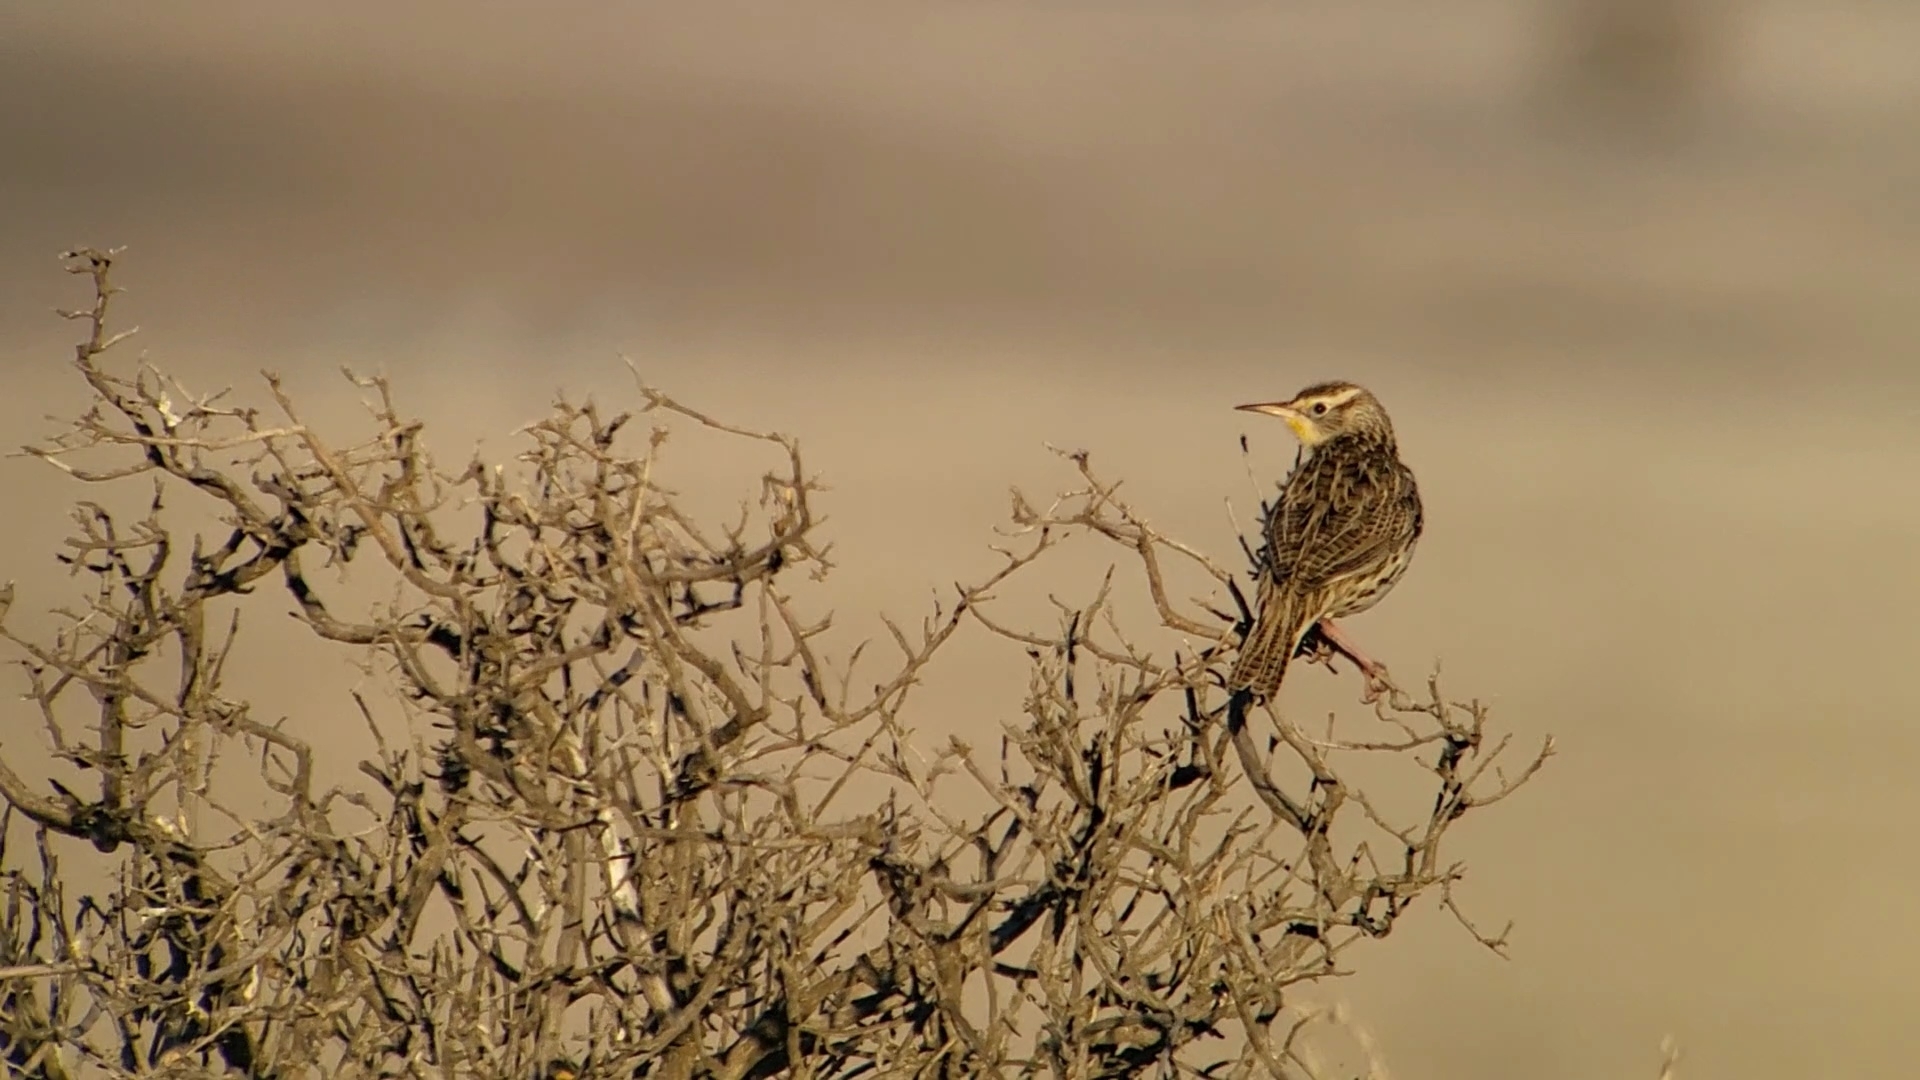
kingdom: Animalia
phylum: Chordata
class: Aves
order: Passeriformes
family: Icteridae
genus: Sturnella
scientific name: Sturnella neglecta
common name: Western meadowlark
